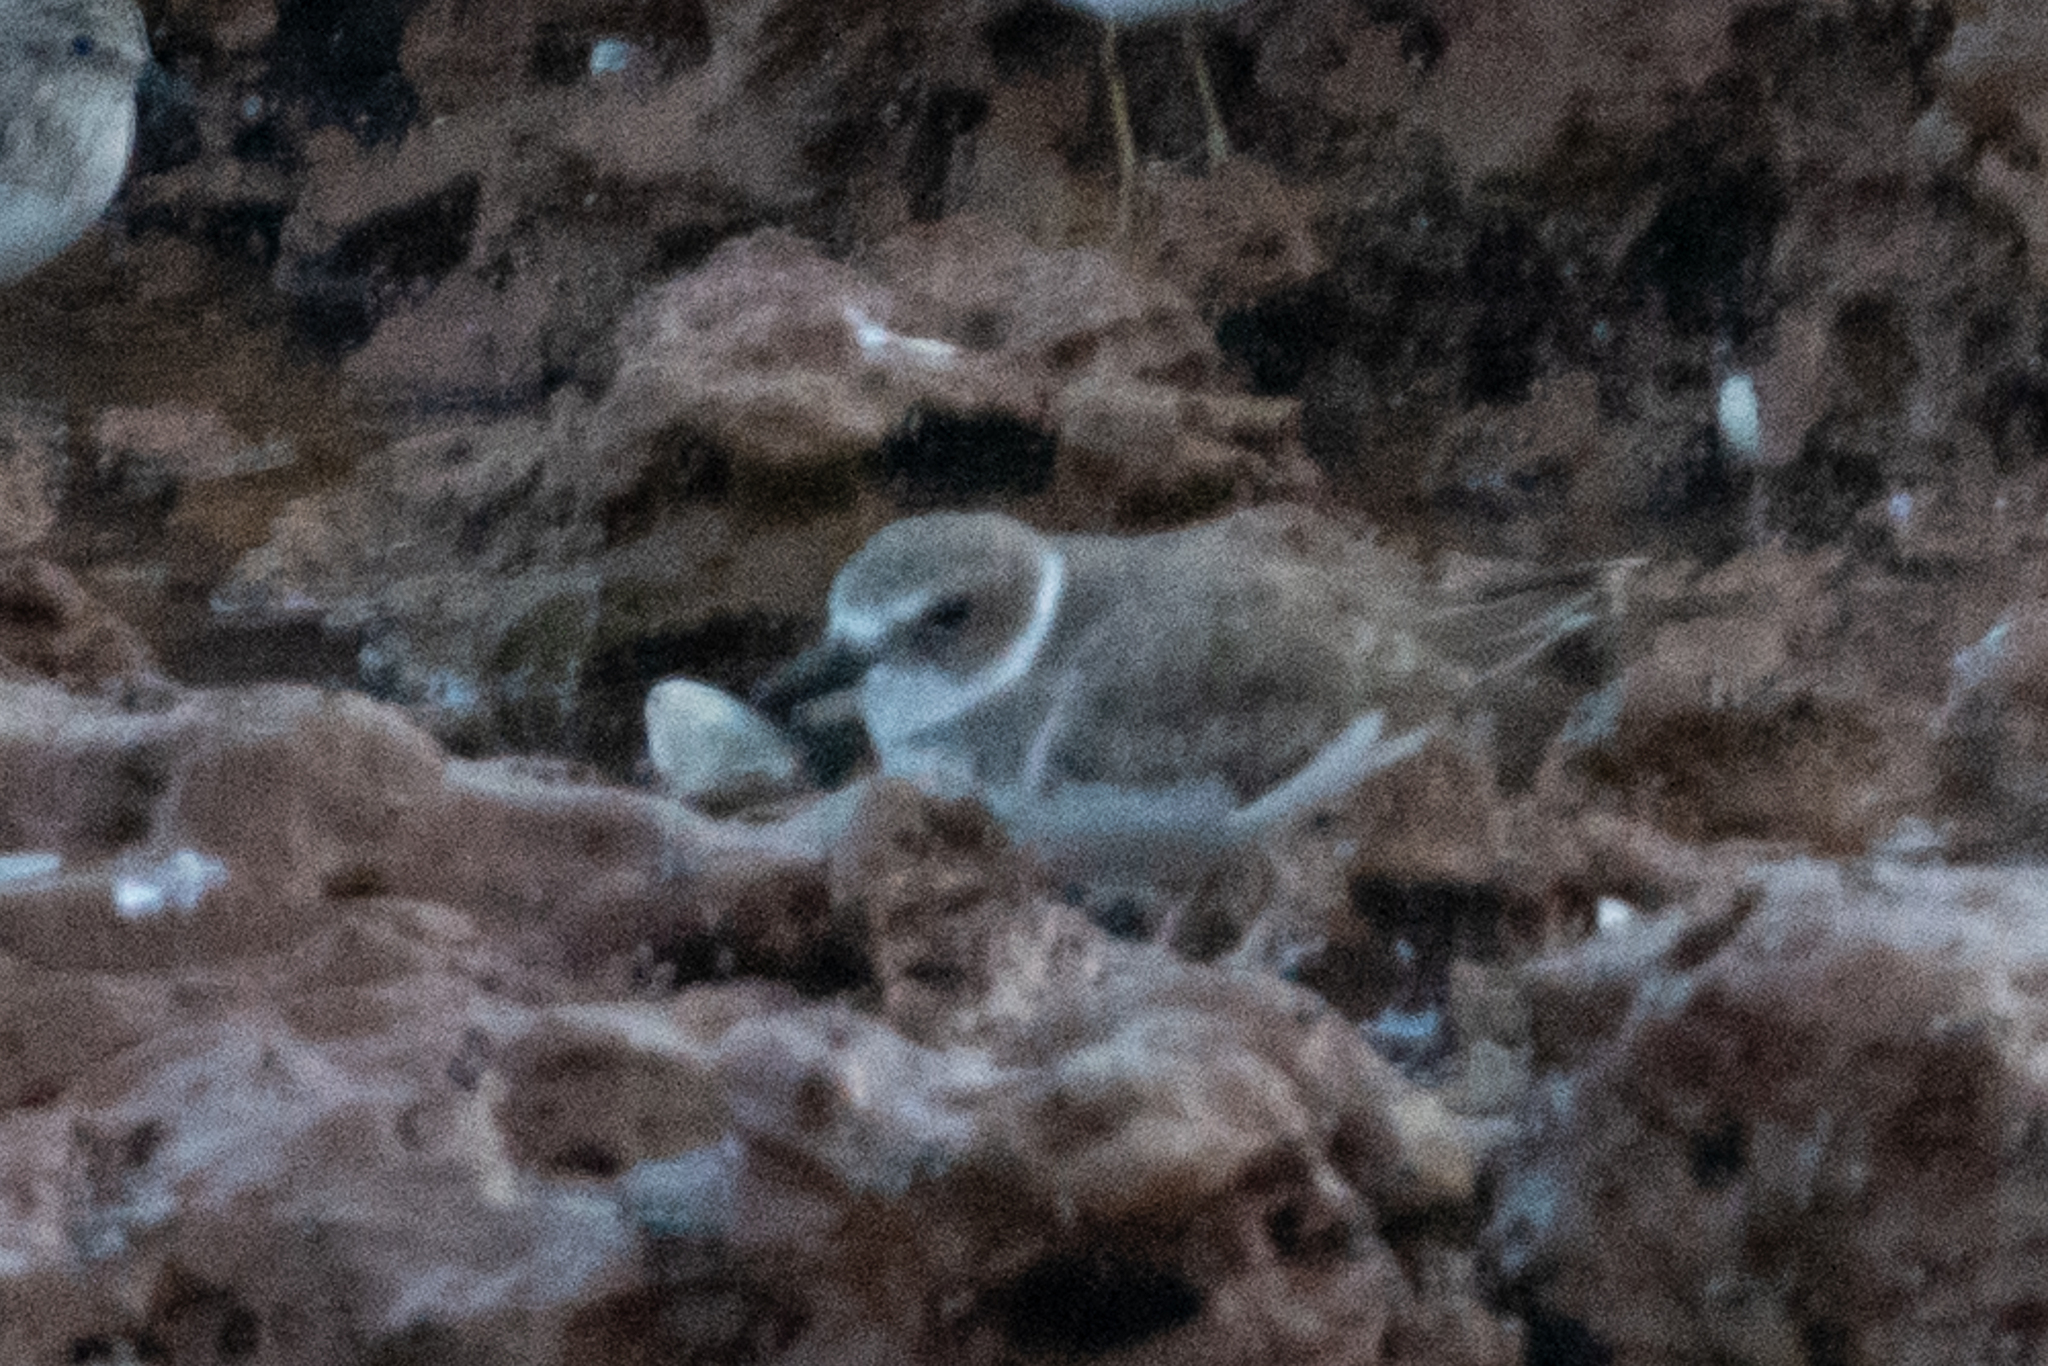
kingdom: Animalia
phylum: Chordata
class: Aves
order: Charadriiformes
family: Charadriidae
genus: Anarhynchus
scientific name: Anarhynchus
